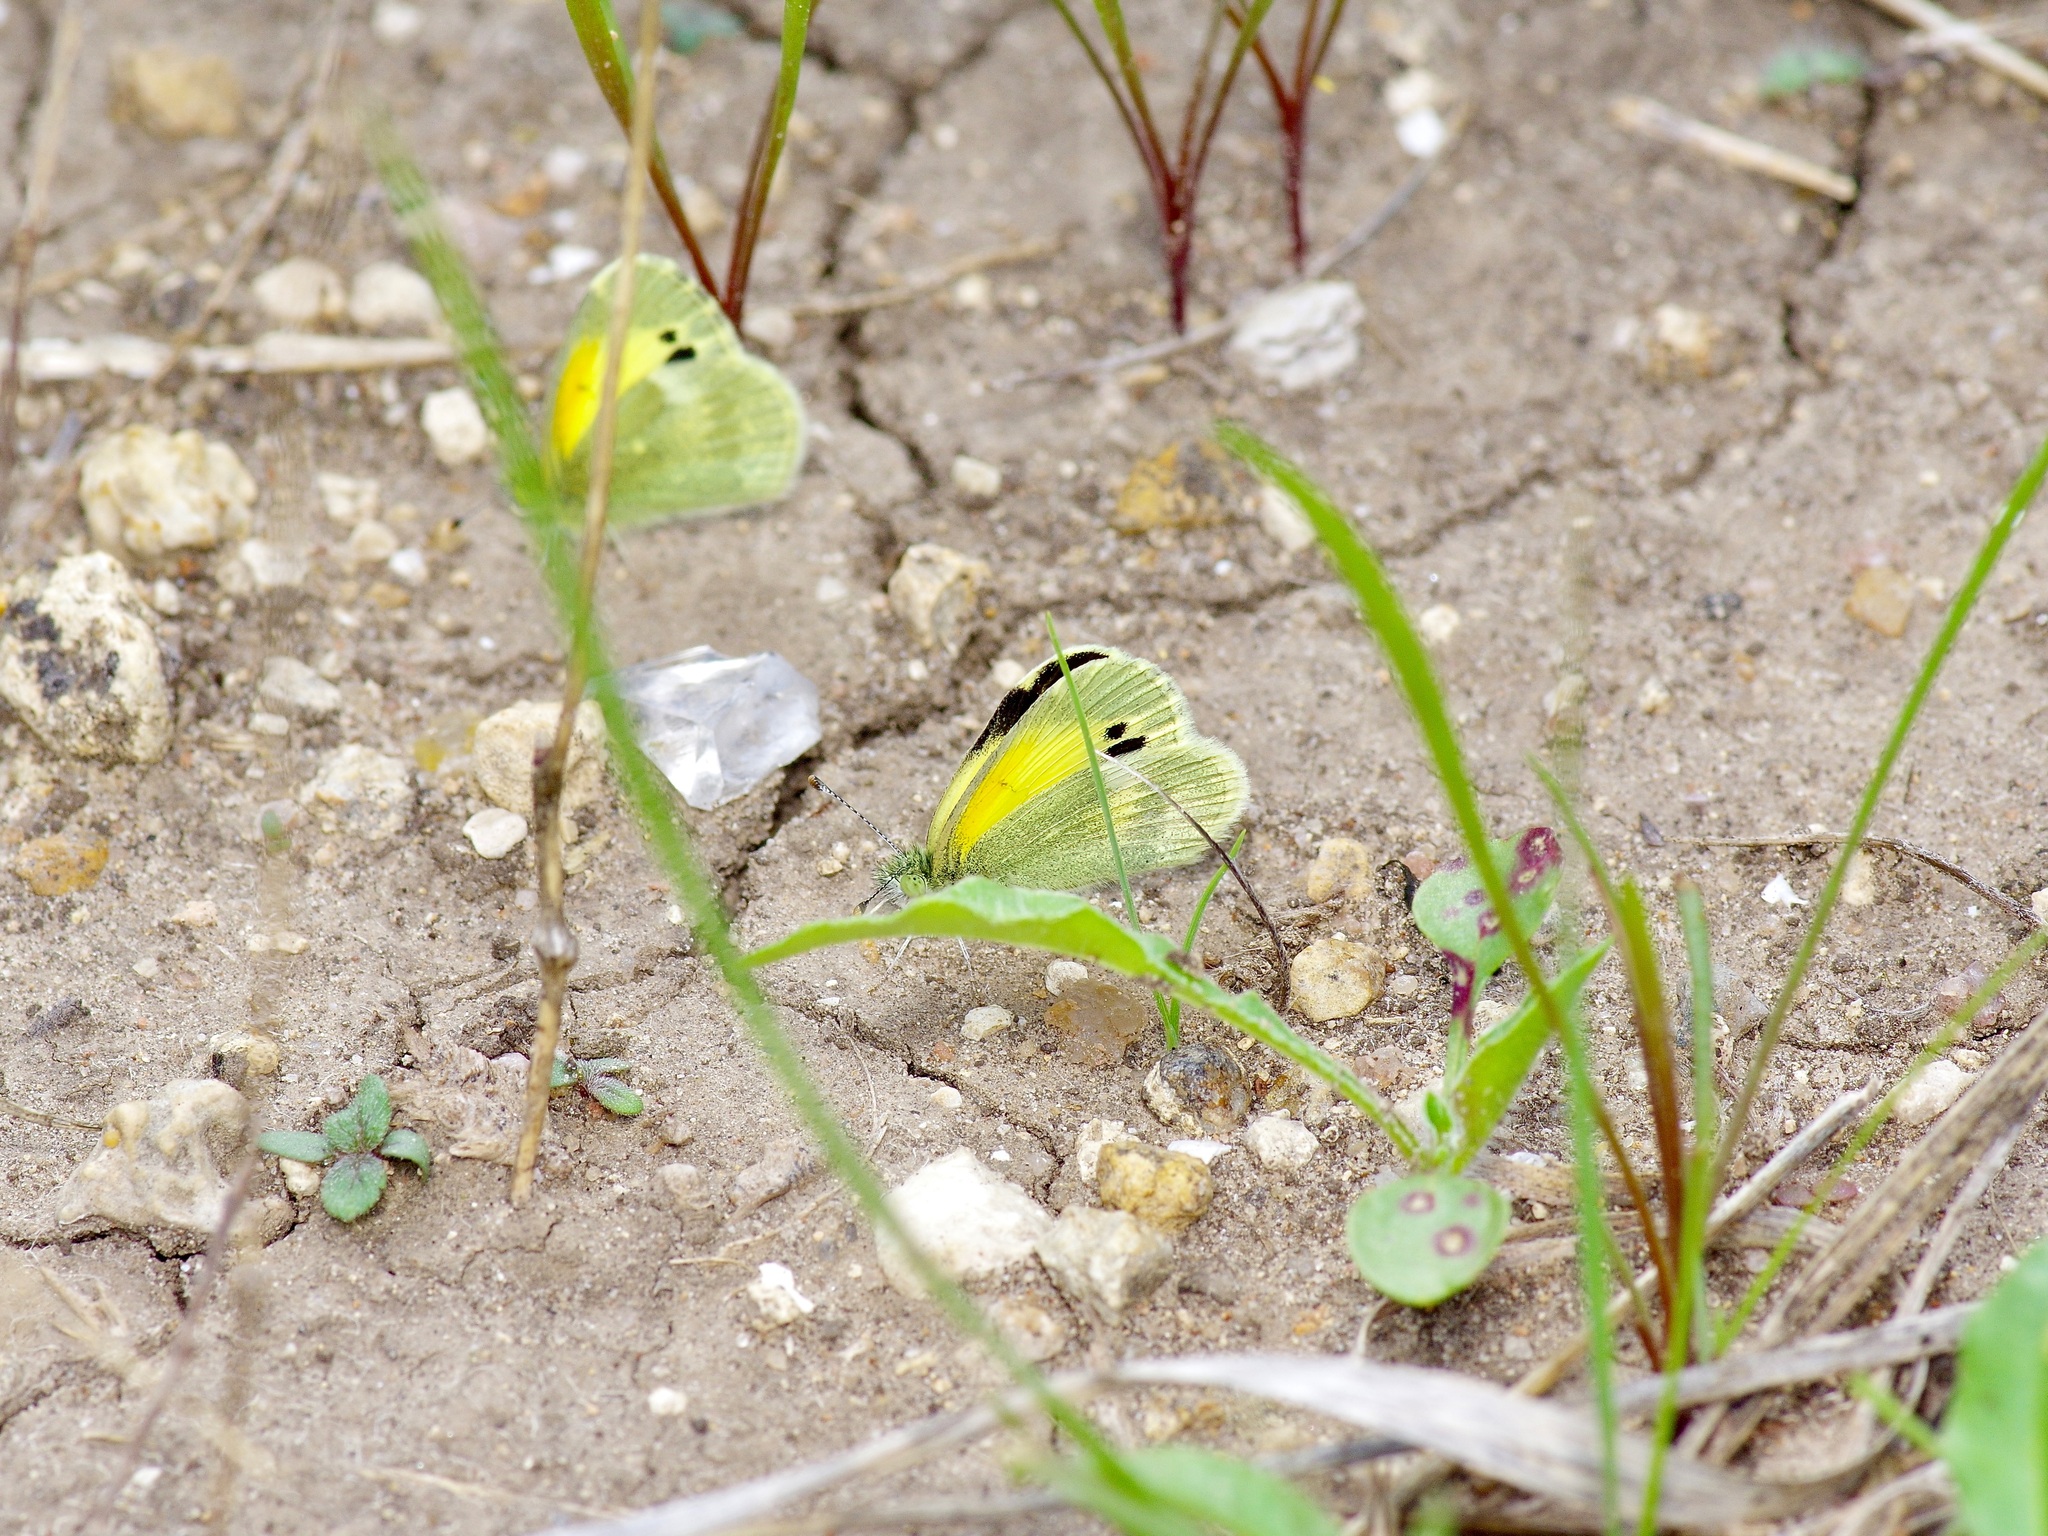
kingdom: Animalia
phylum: Arthropoda
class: Insecta
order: Lepidoptera
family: Pieridae
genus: Nathalis
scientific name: Nathalis iole
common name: Dainty sulphur
